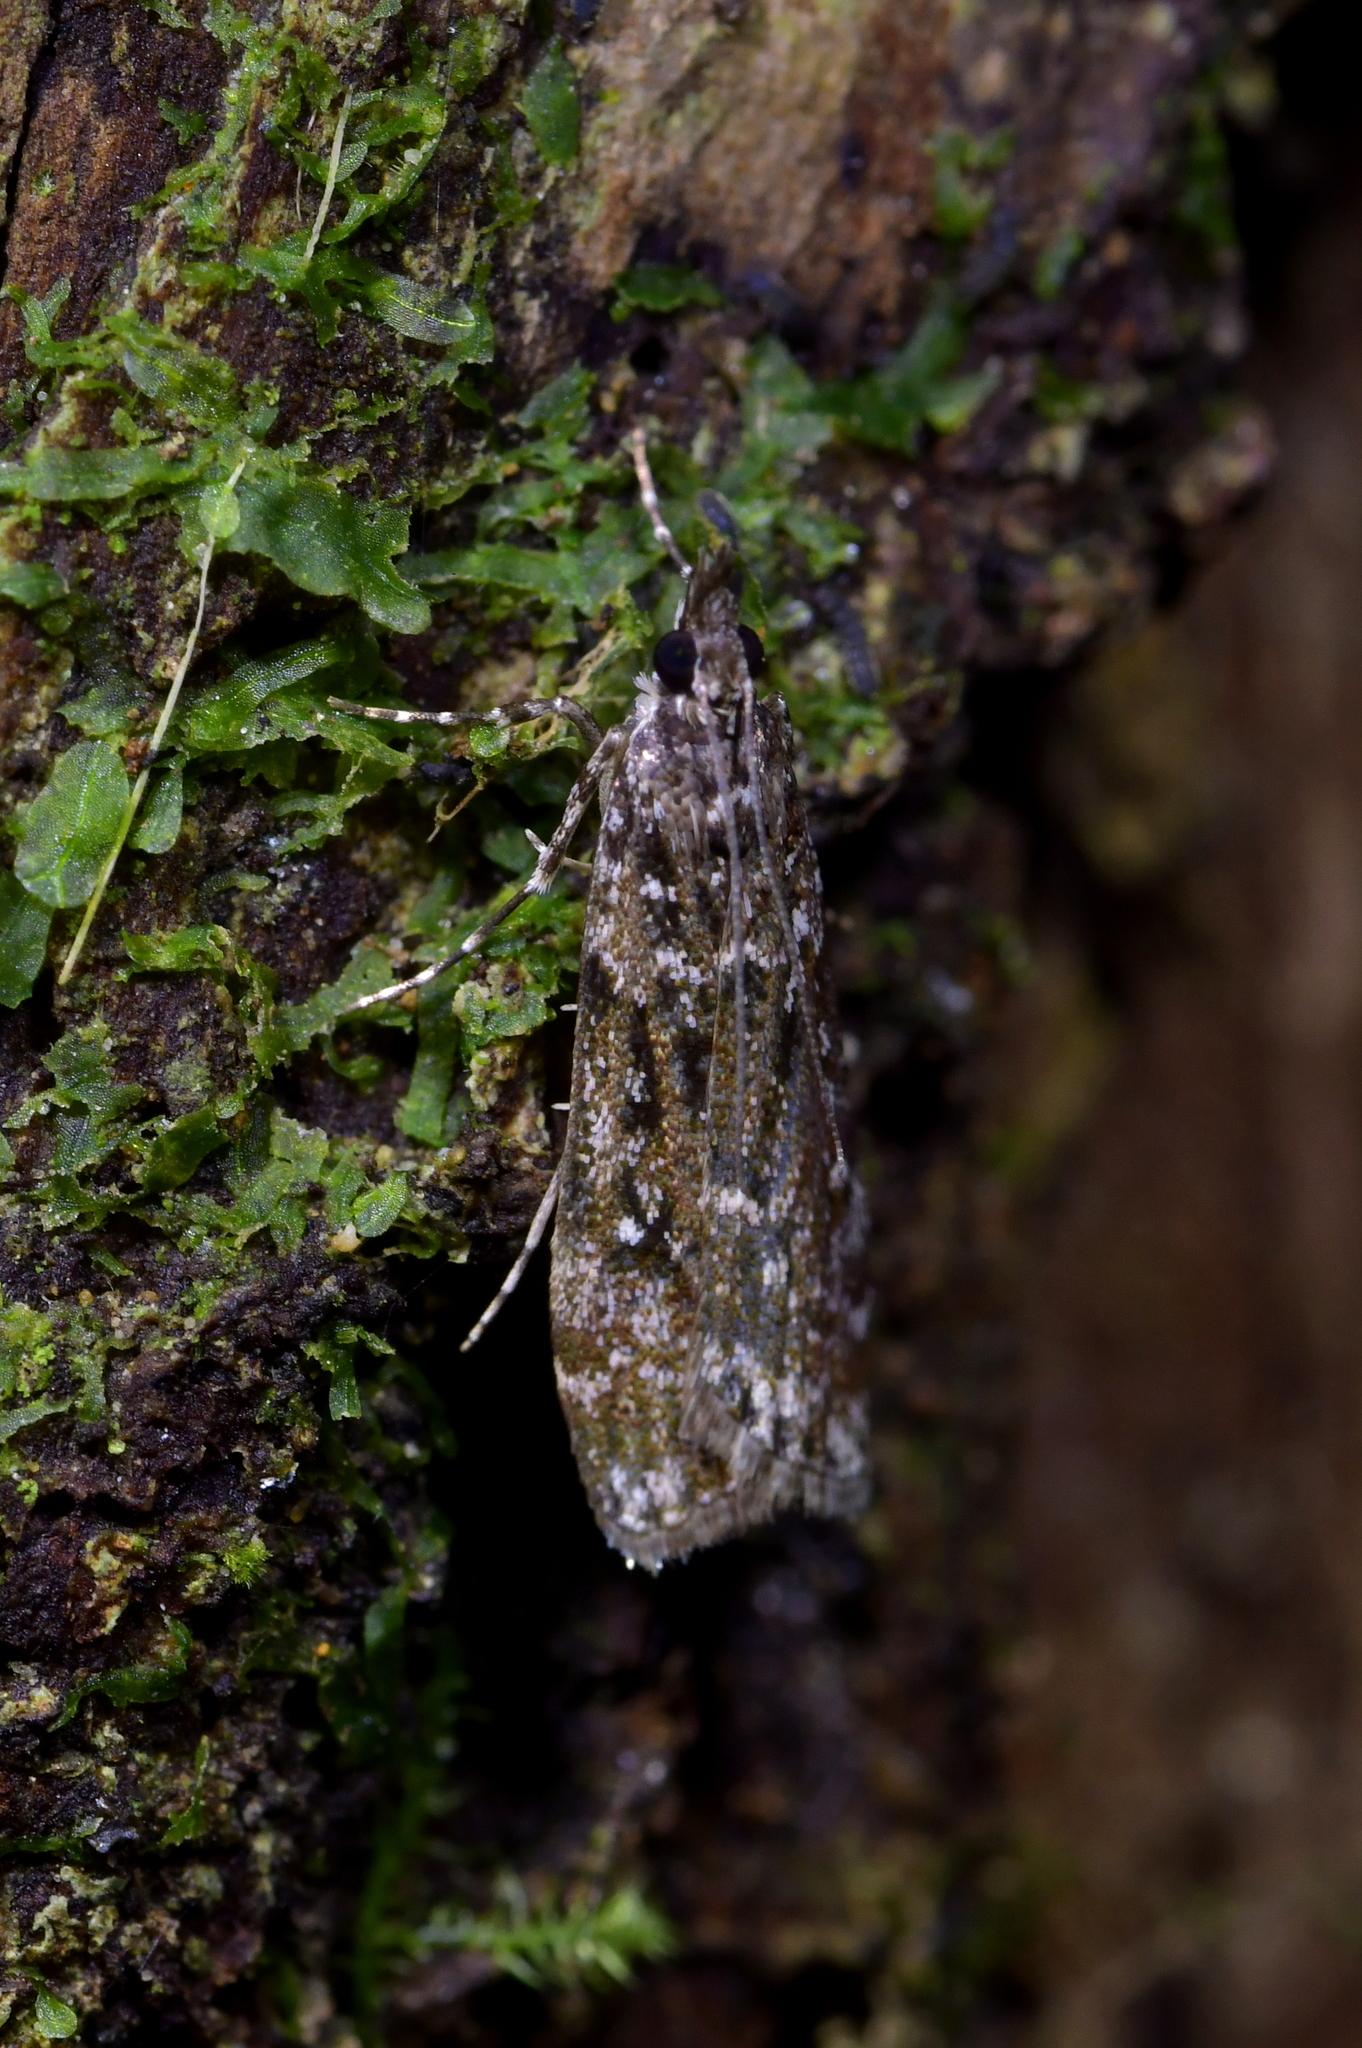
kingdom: Animalia
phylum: Arthropoda
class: Insecta
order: Lepidoptera
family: Crambidae
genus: Eudonia
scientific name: Eudonia philerga
